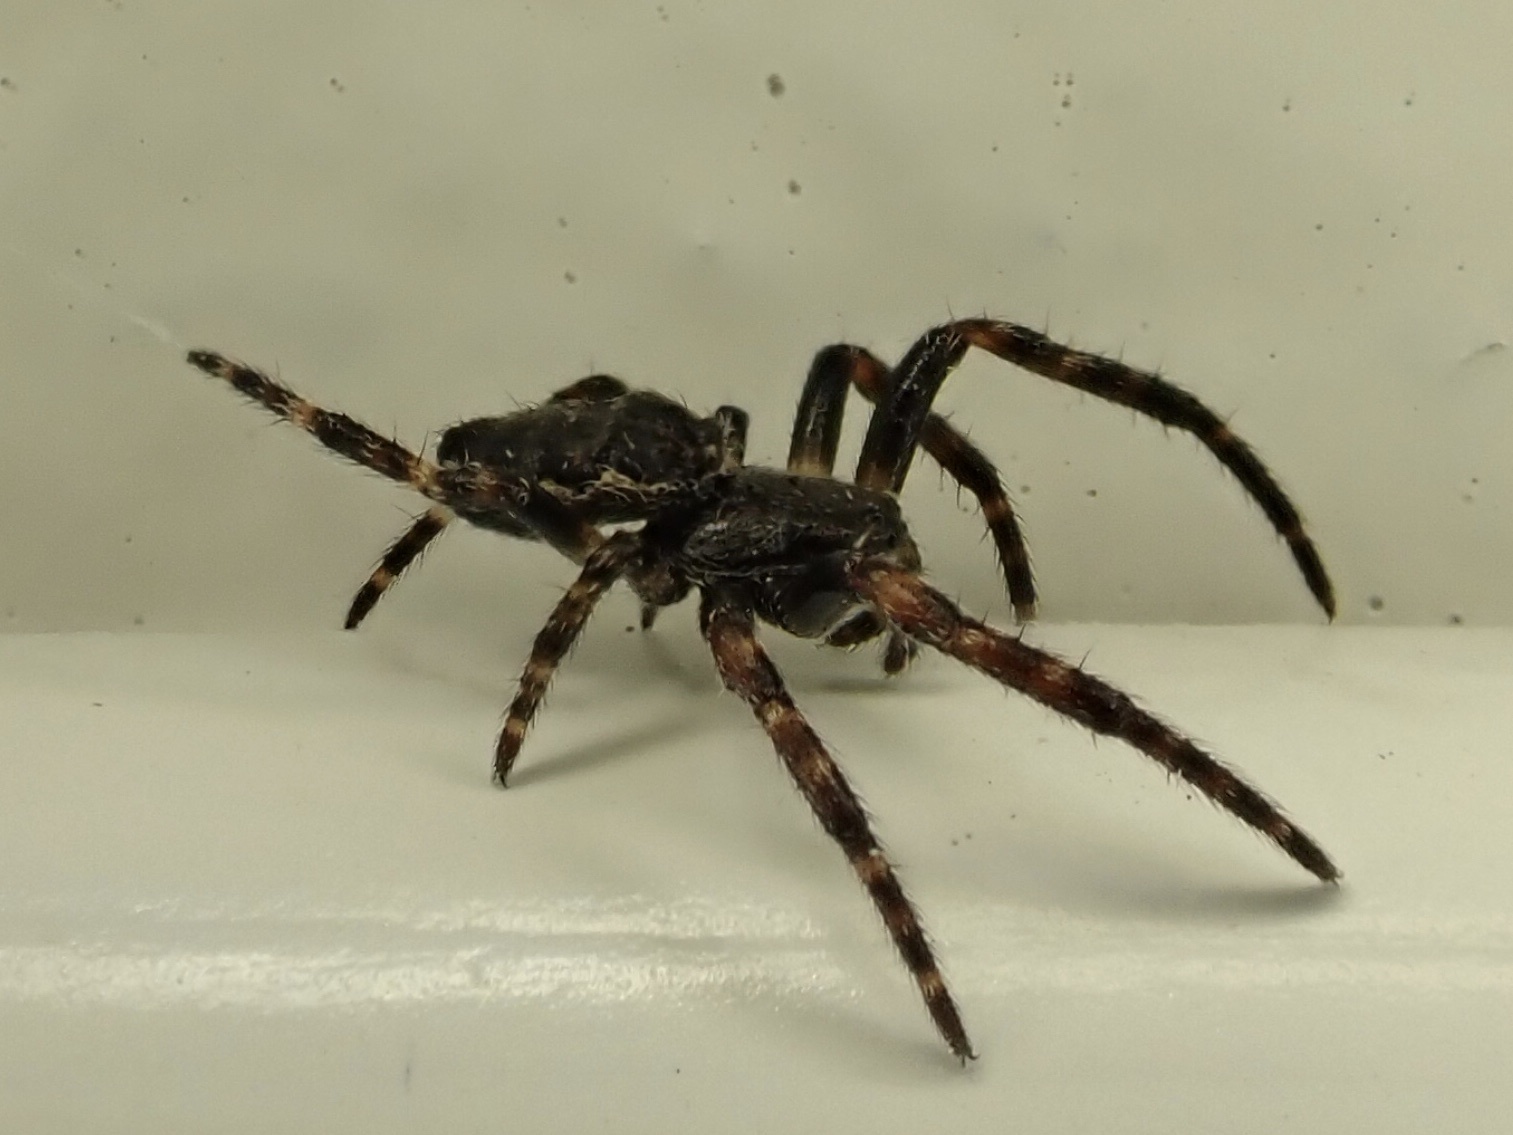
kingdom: Animalia
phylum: Arthropoda
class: Arachnida
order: Araneae
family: Araneidae
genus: Nuctenea
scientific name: Nuctenea umbratica
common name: Toad spider
